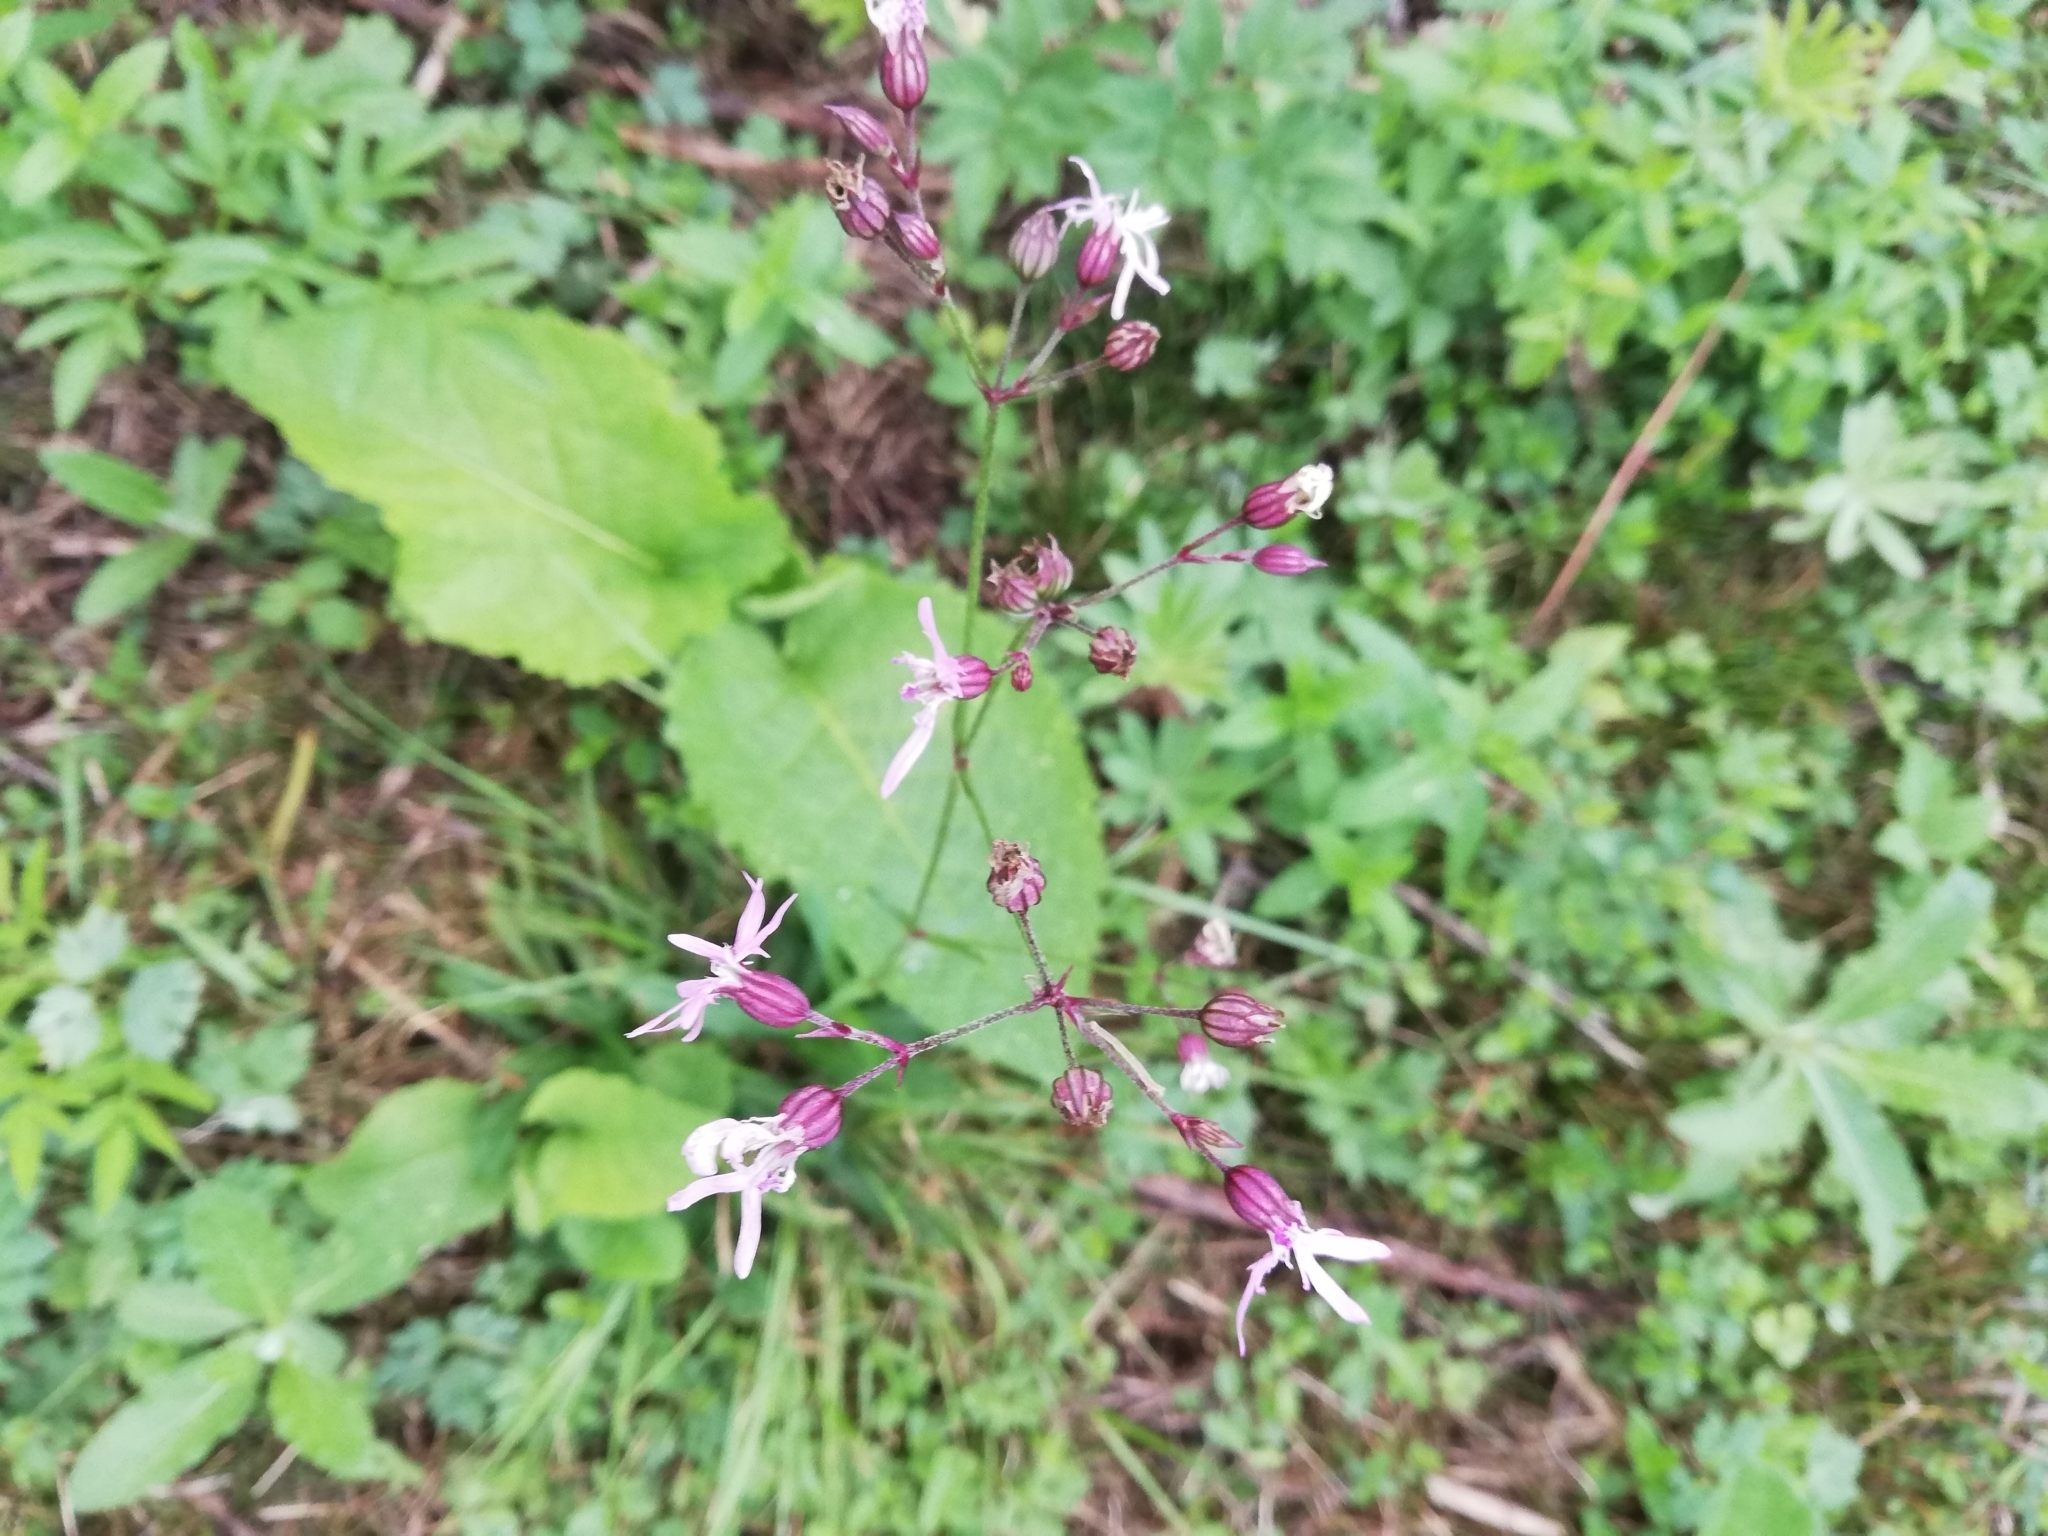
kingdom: Plantae
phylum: Tracheophyta
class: Magnoliopsida
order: Caryophyllales
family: Caryophyllaceae
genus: Silene
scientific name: Silene flos-cuculi
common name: Ragged-robin
